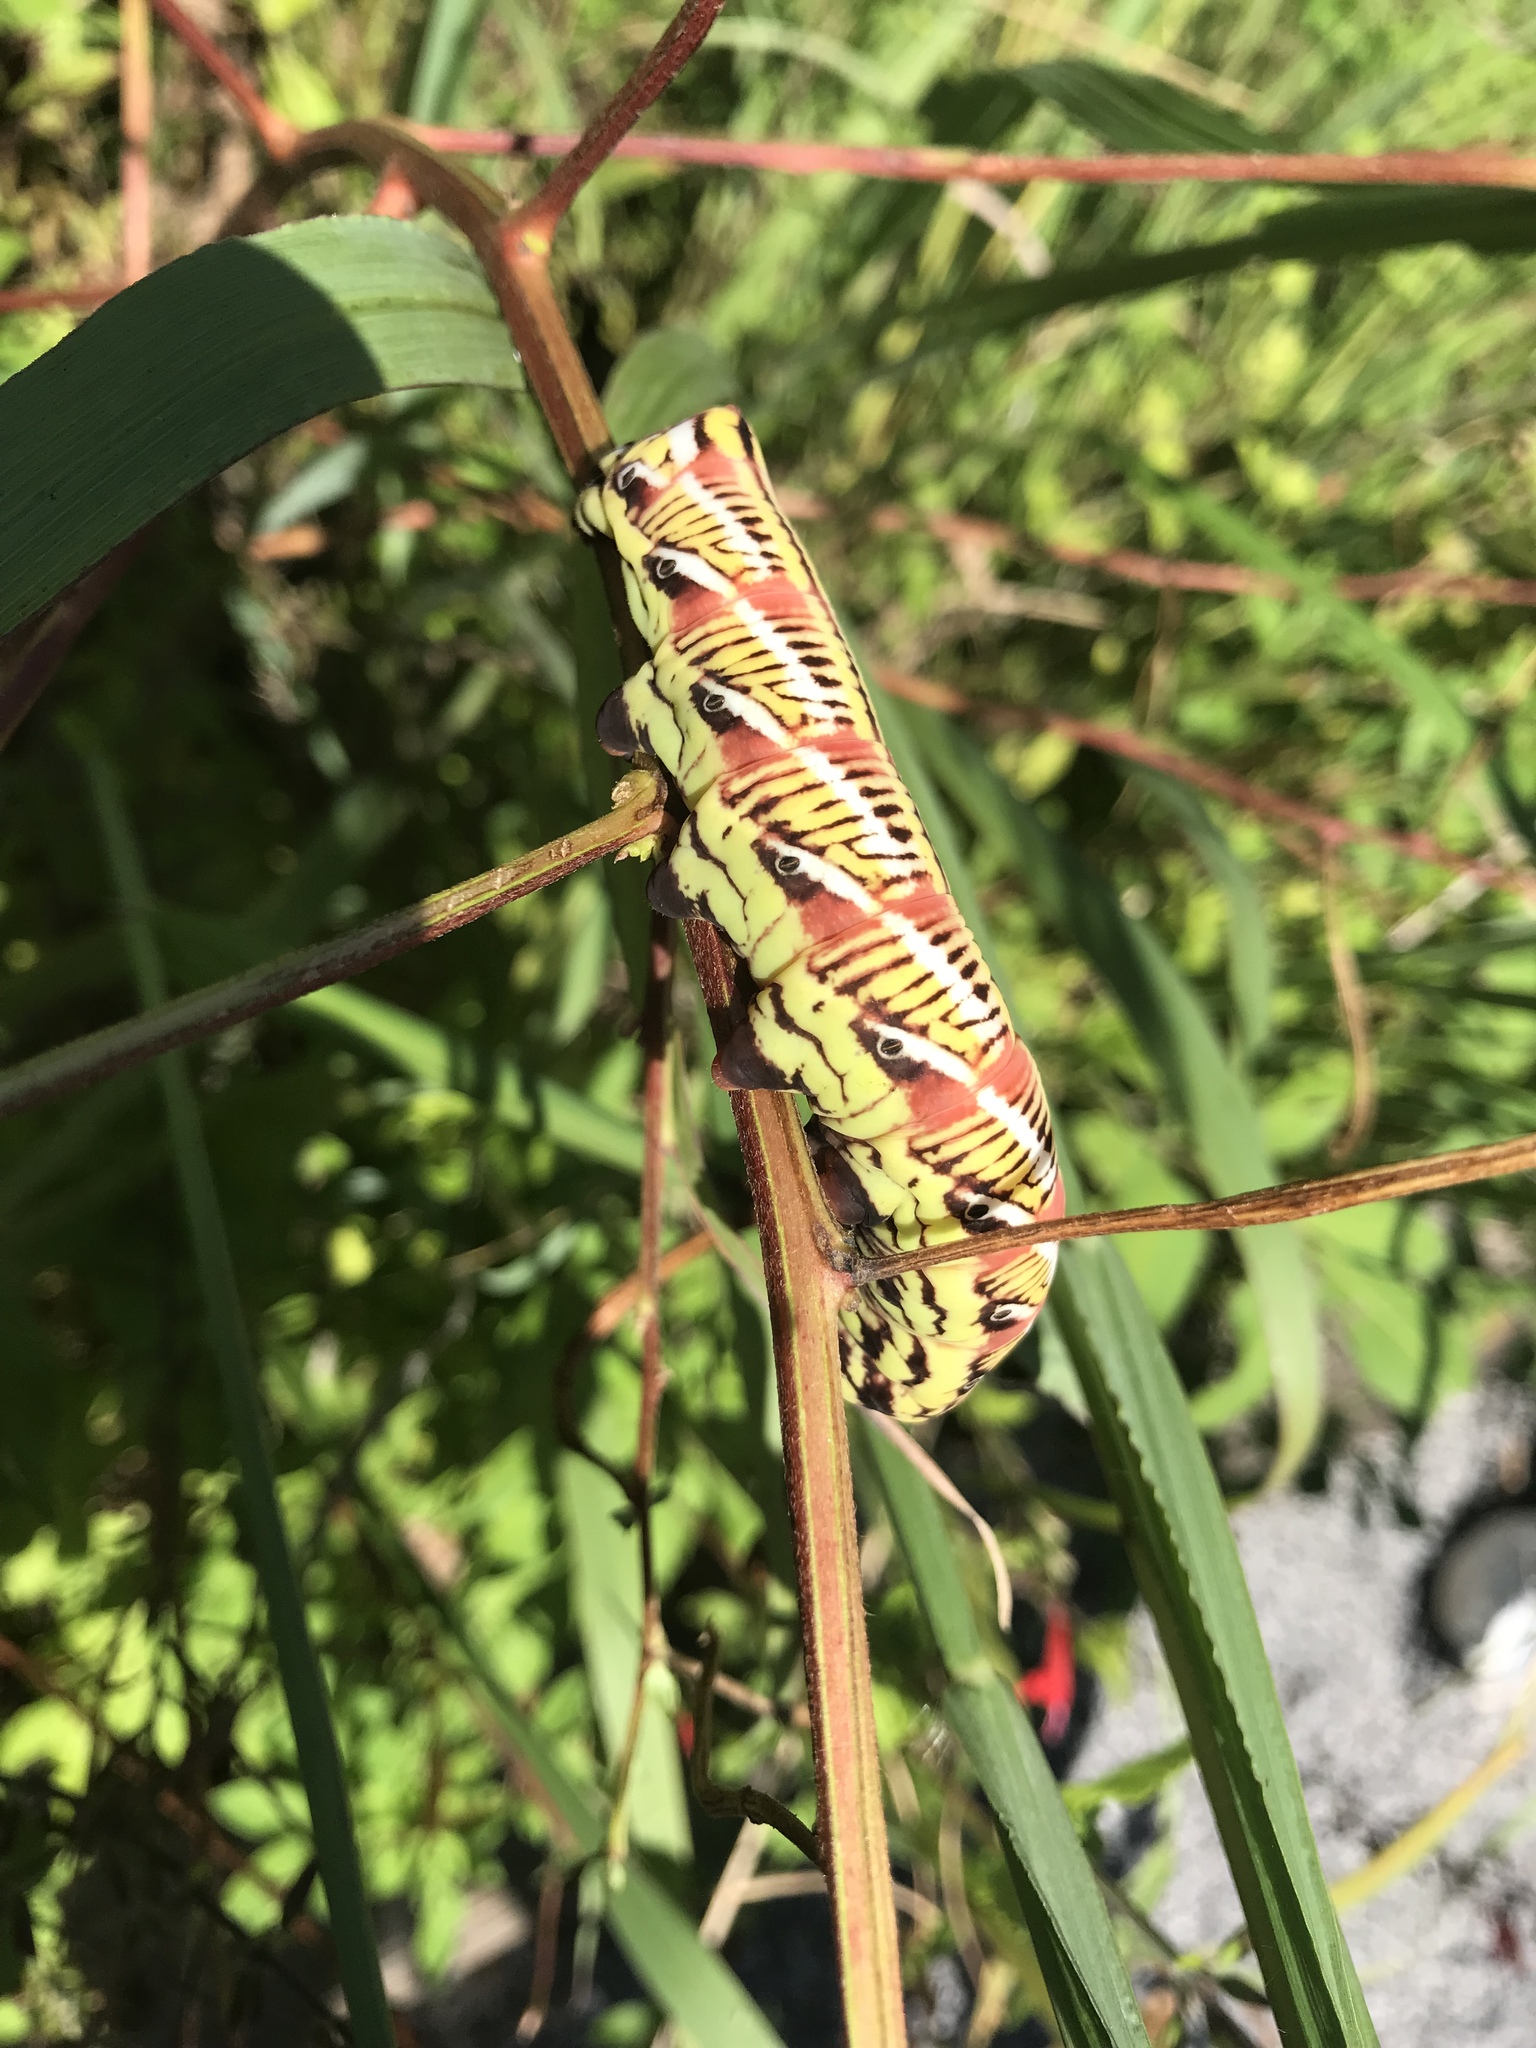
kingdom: Animalia
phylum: Arthropoda
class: Insecta
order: Lepidoptera
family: Sphingidae
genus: Eumorpha
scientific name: Eumorpha fasciatus
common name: Banded sphinx
